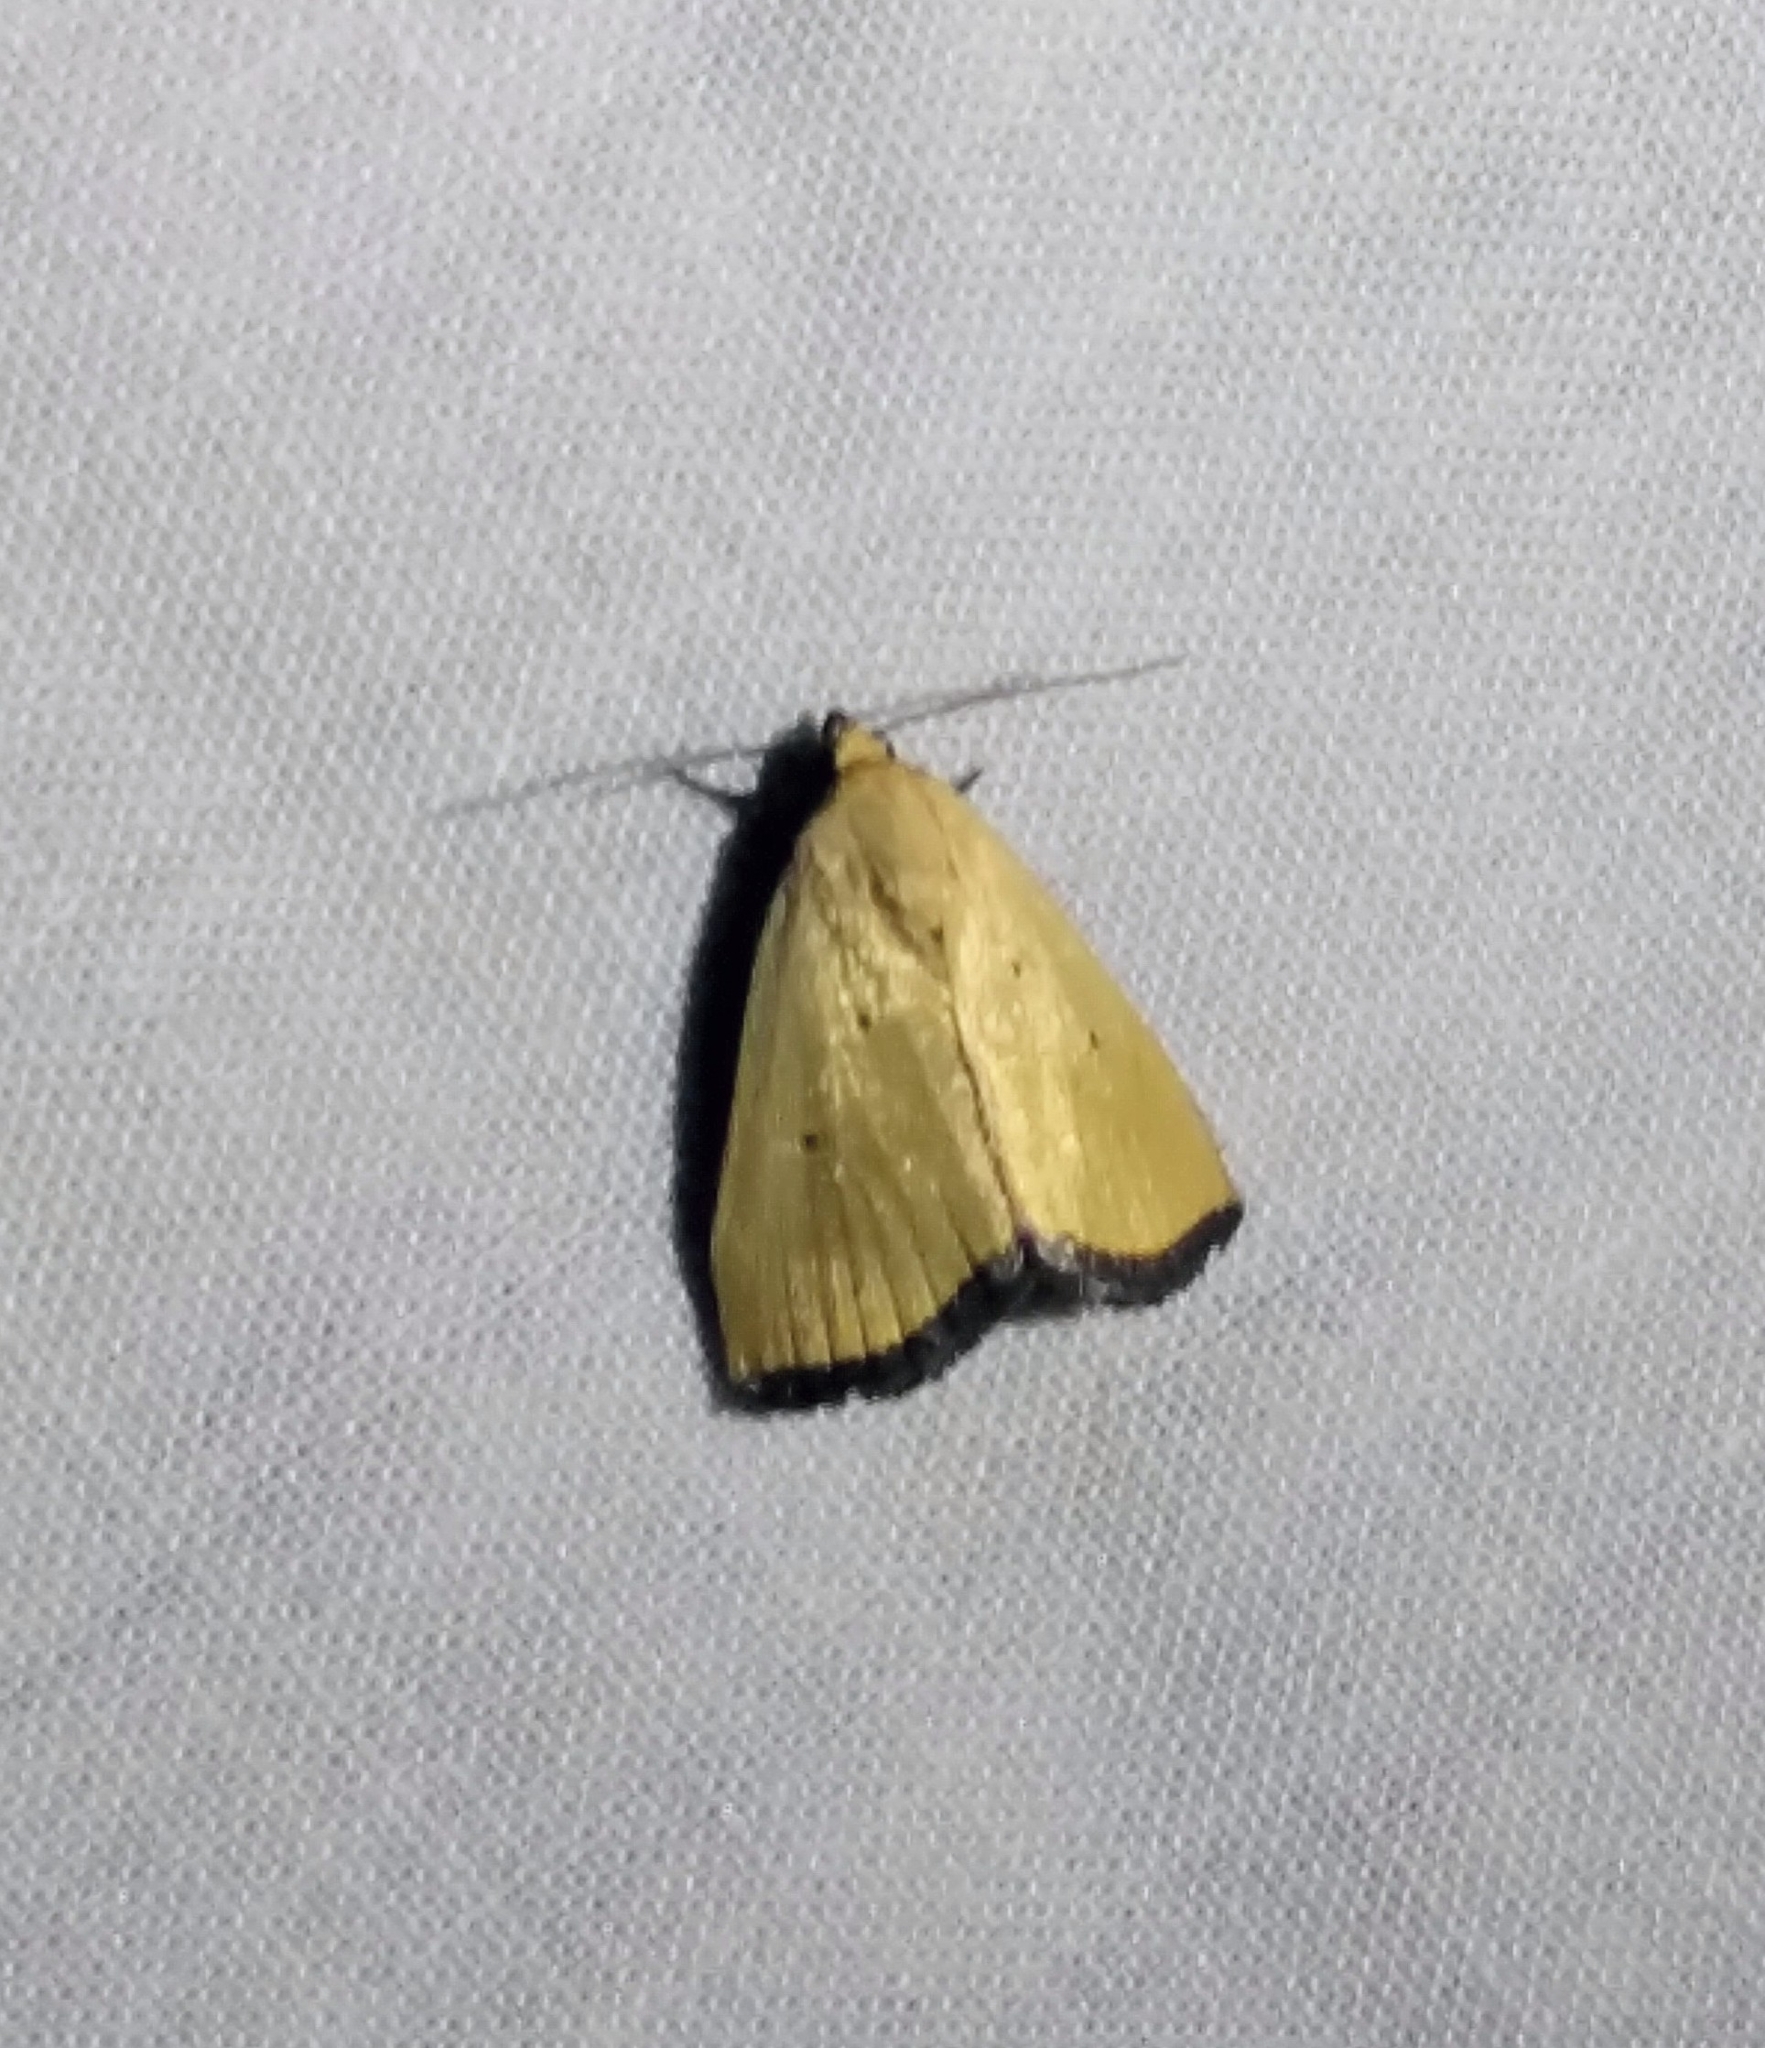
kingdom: Animalia
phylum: Arthropoda
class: Insecta
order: Lepidoptera
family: Noctuidae
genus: Marimatha
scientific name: Marimatha nigrofimbria
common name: Black-bordered lemon moth
